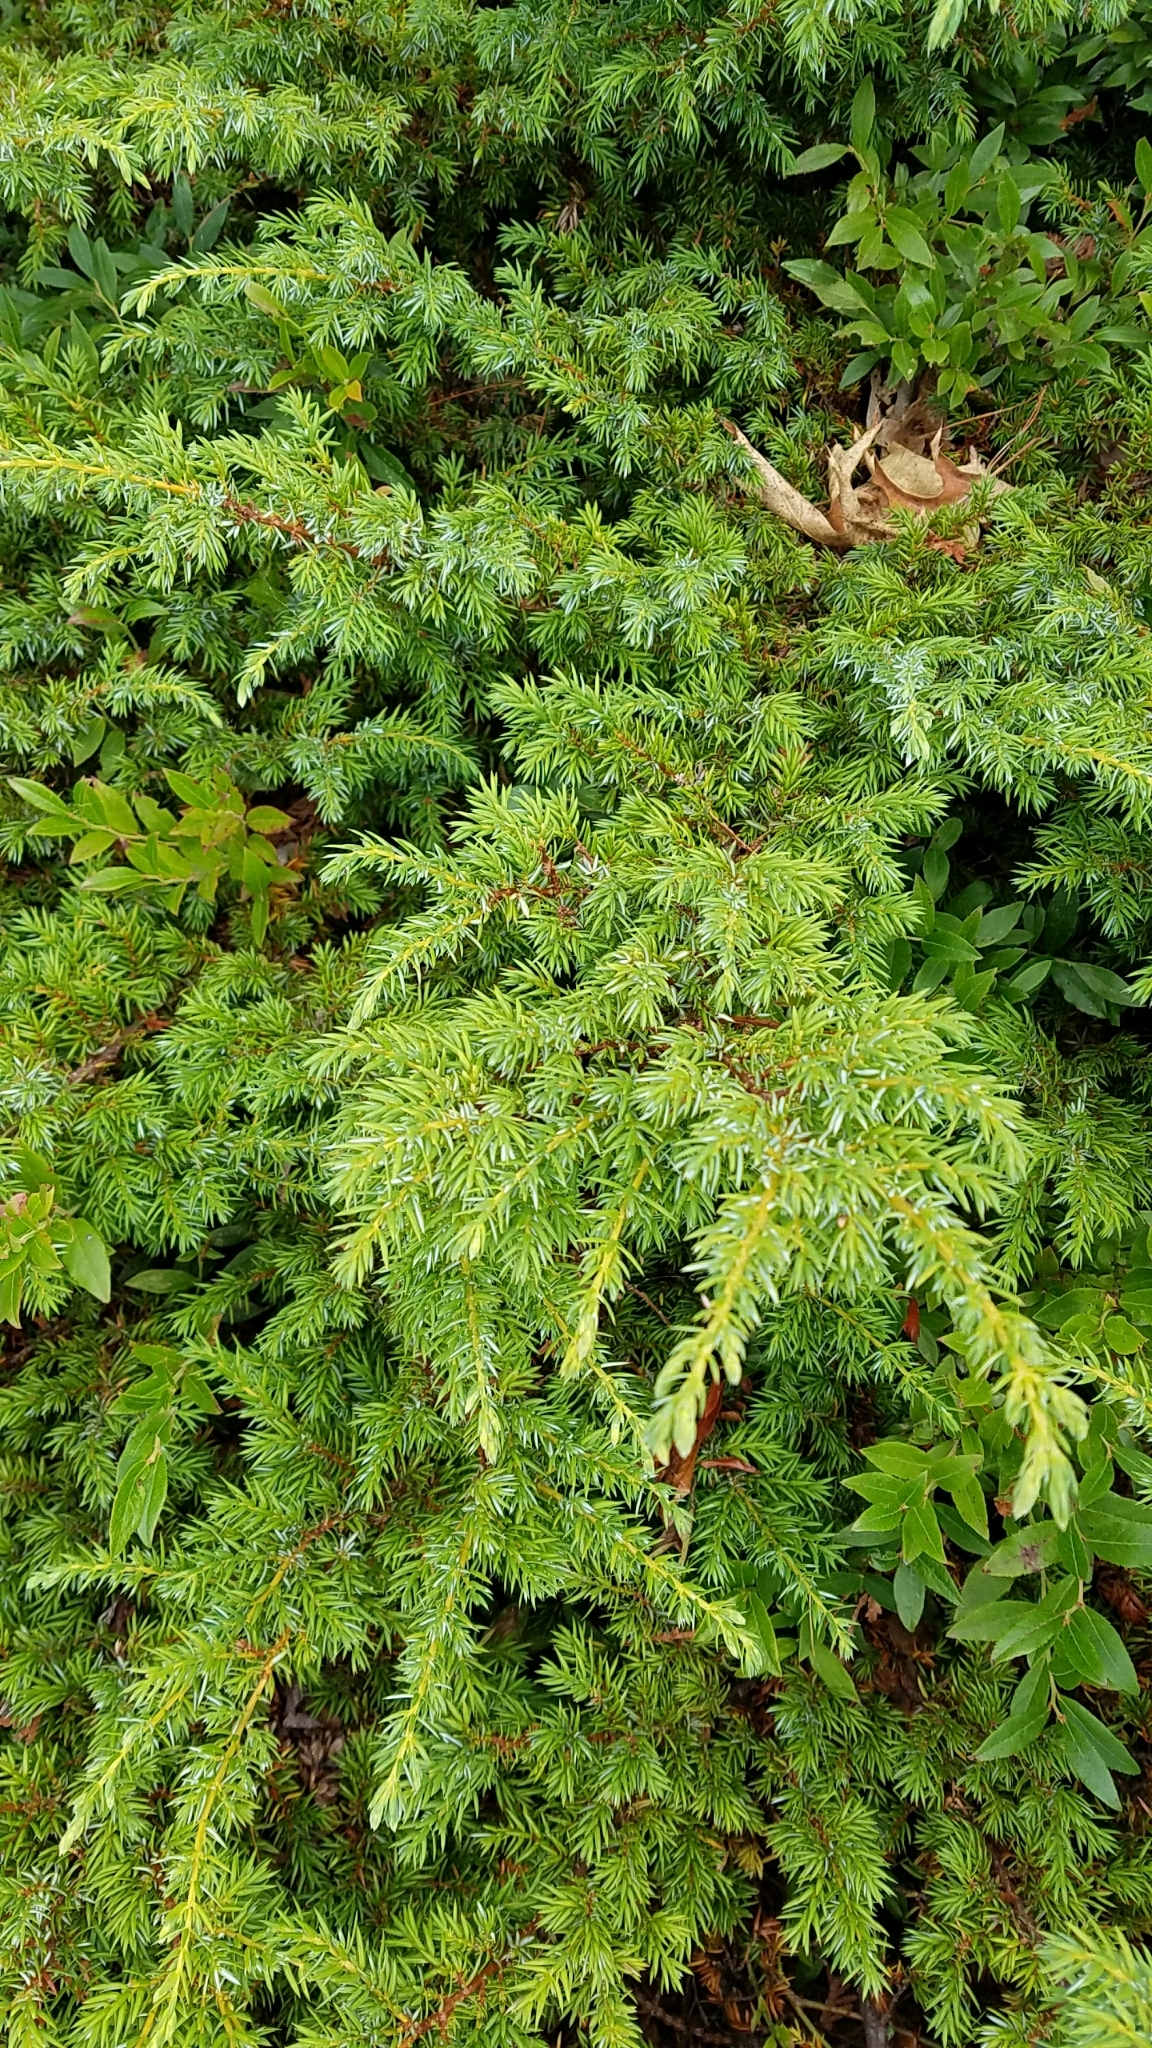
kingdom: Plantae
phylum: Tracheophyta
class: Pinopsida
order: Pinales
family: Cupressaceae
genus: Juniperus
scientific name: Juniperus communis
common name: Common juniper
